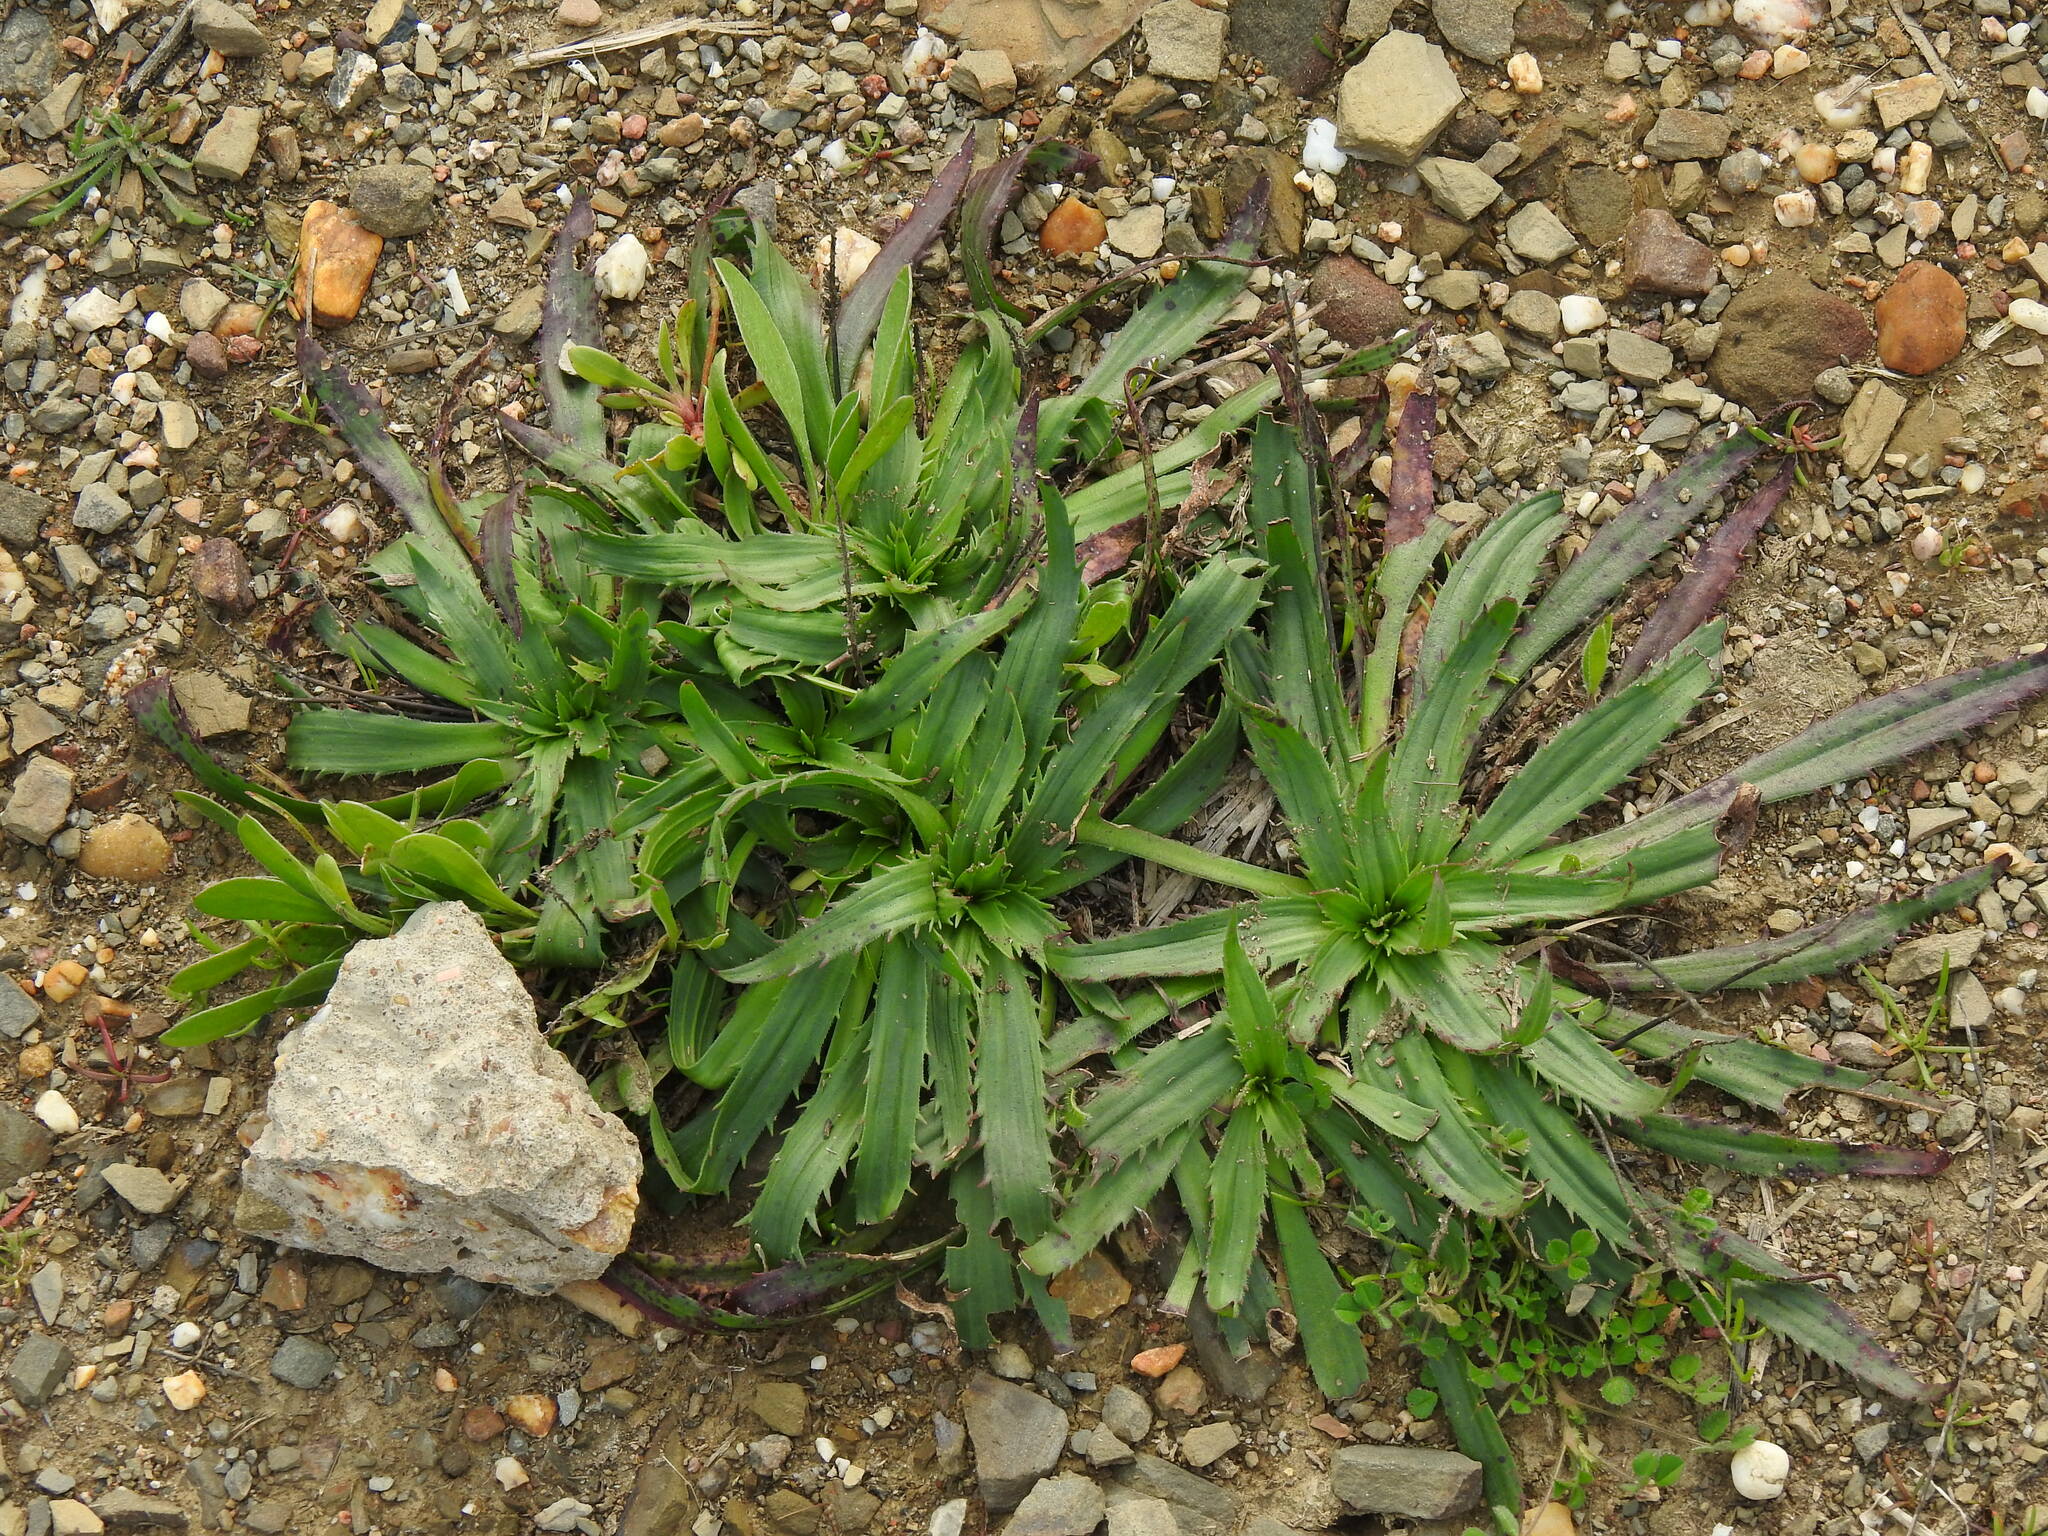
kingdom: Plantae
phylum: Tracheophyta
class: Magnoliopsida
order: Lamiales
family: Plantaginaceae
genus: Plantago
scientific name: Plantago serraria
